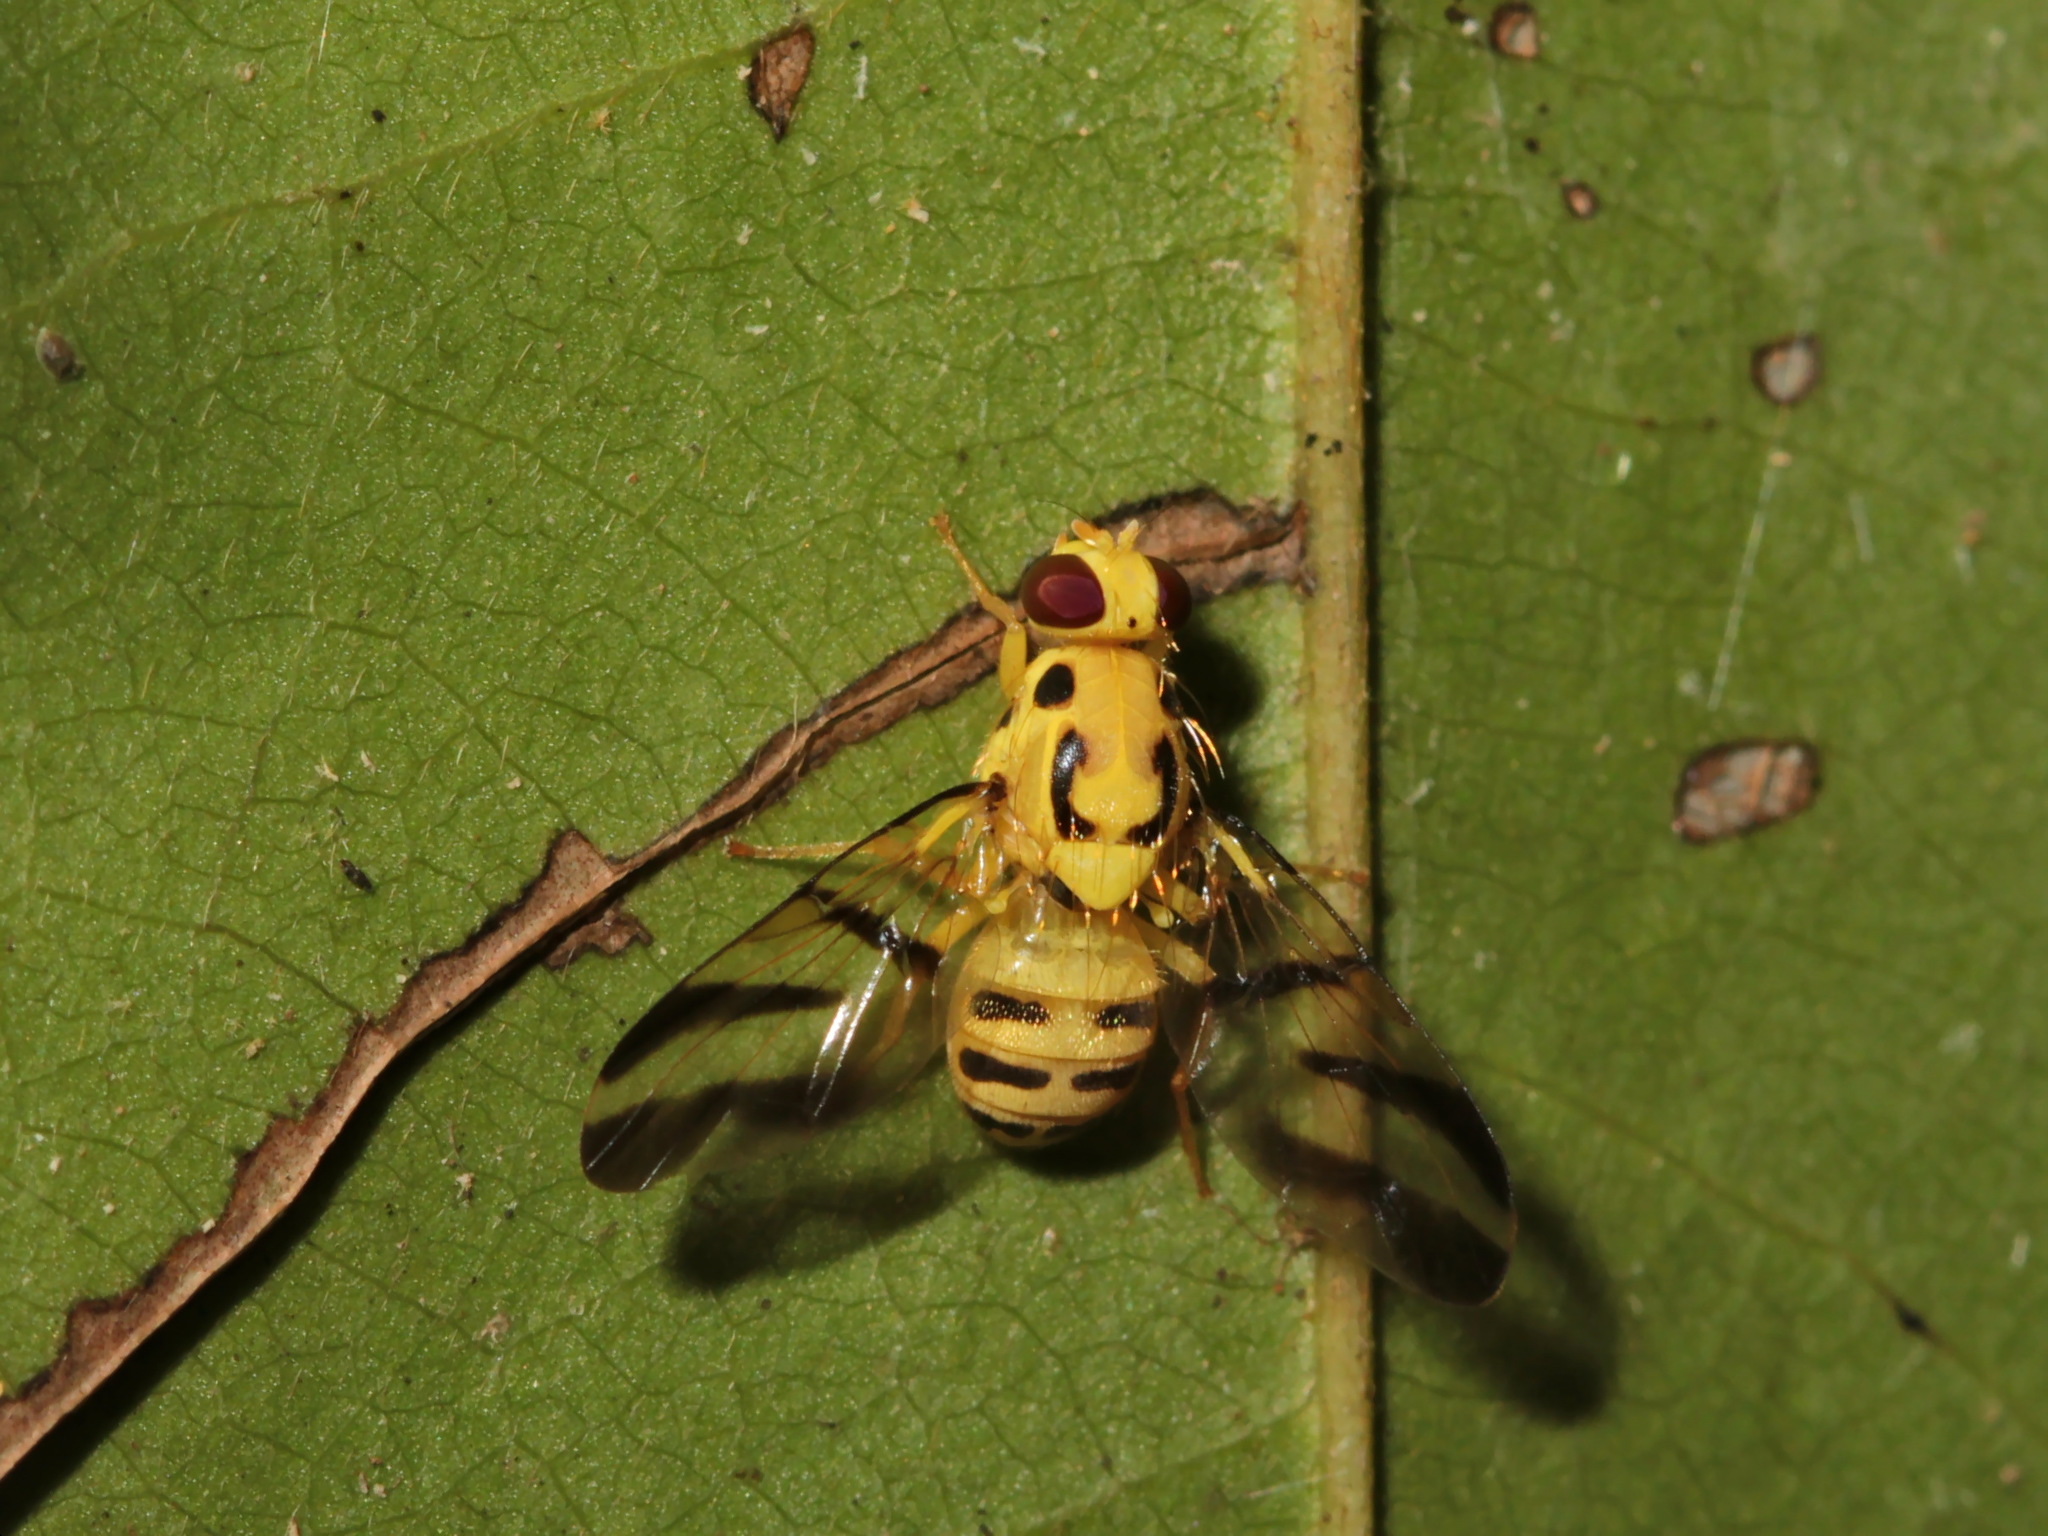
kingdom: Animalia
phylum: Arthropoda
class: Insecta
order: Diptera
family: Tephritidae
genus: Tritaeniopteron
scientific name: Tritaeniopteron tetraspilotum
